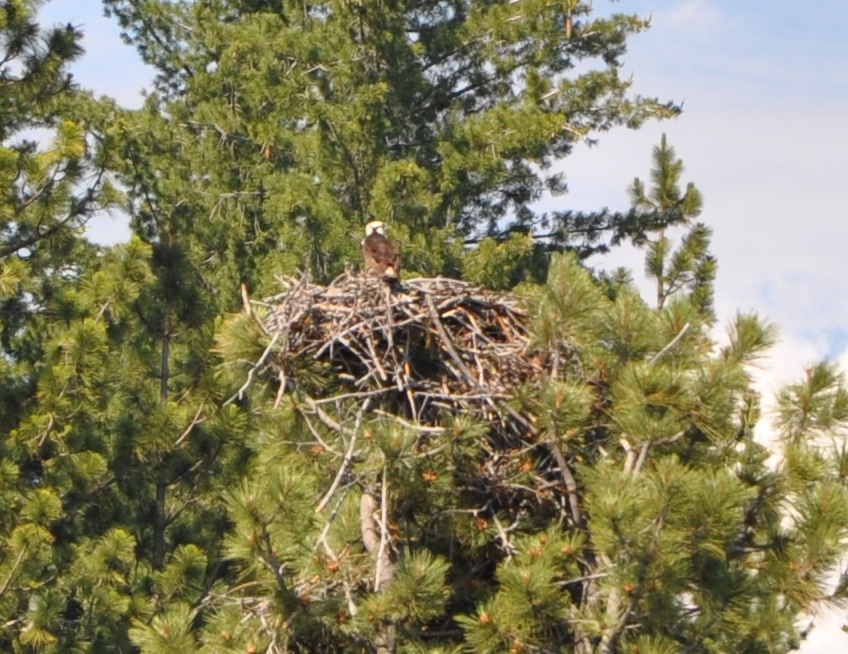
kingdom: Animalia
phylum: Chordata
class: Aves
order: Accipitriformes
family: Pandionidae
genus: Pandion
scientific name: Pandion haliaetus
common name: Osprey
